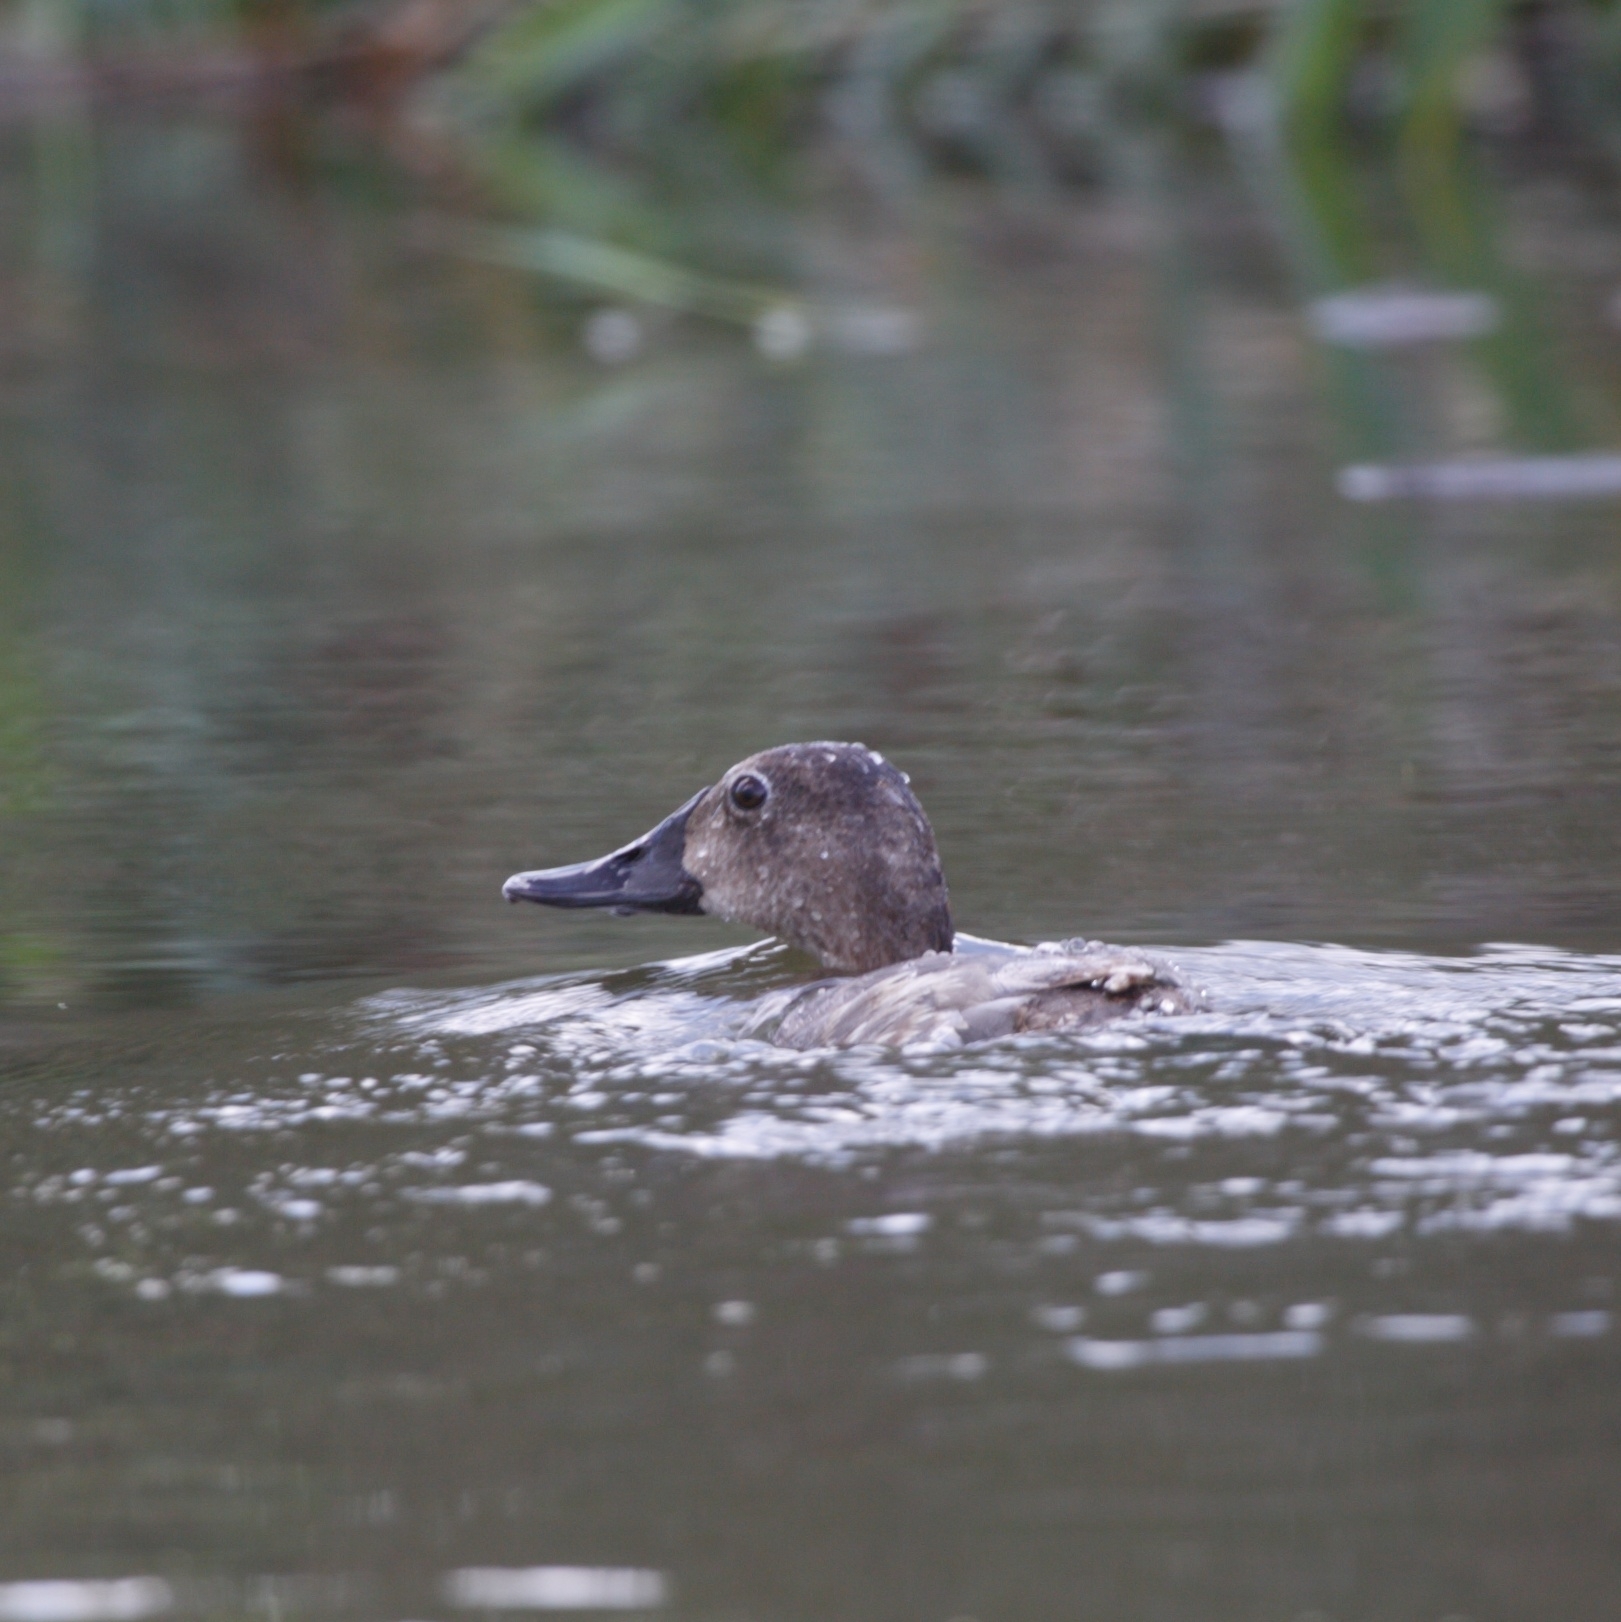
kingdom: Animalia
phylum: Chordata
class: Aves
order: Anseriformes
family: Anatidae
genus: Aythya
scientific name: Aythya ferina
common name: Common pochard
